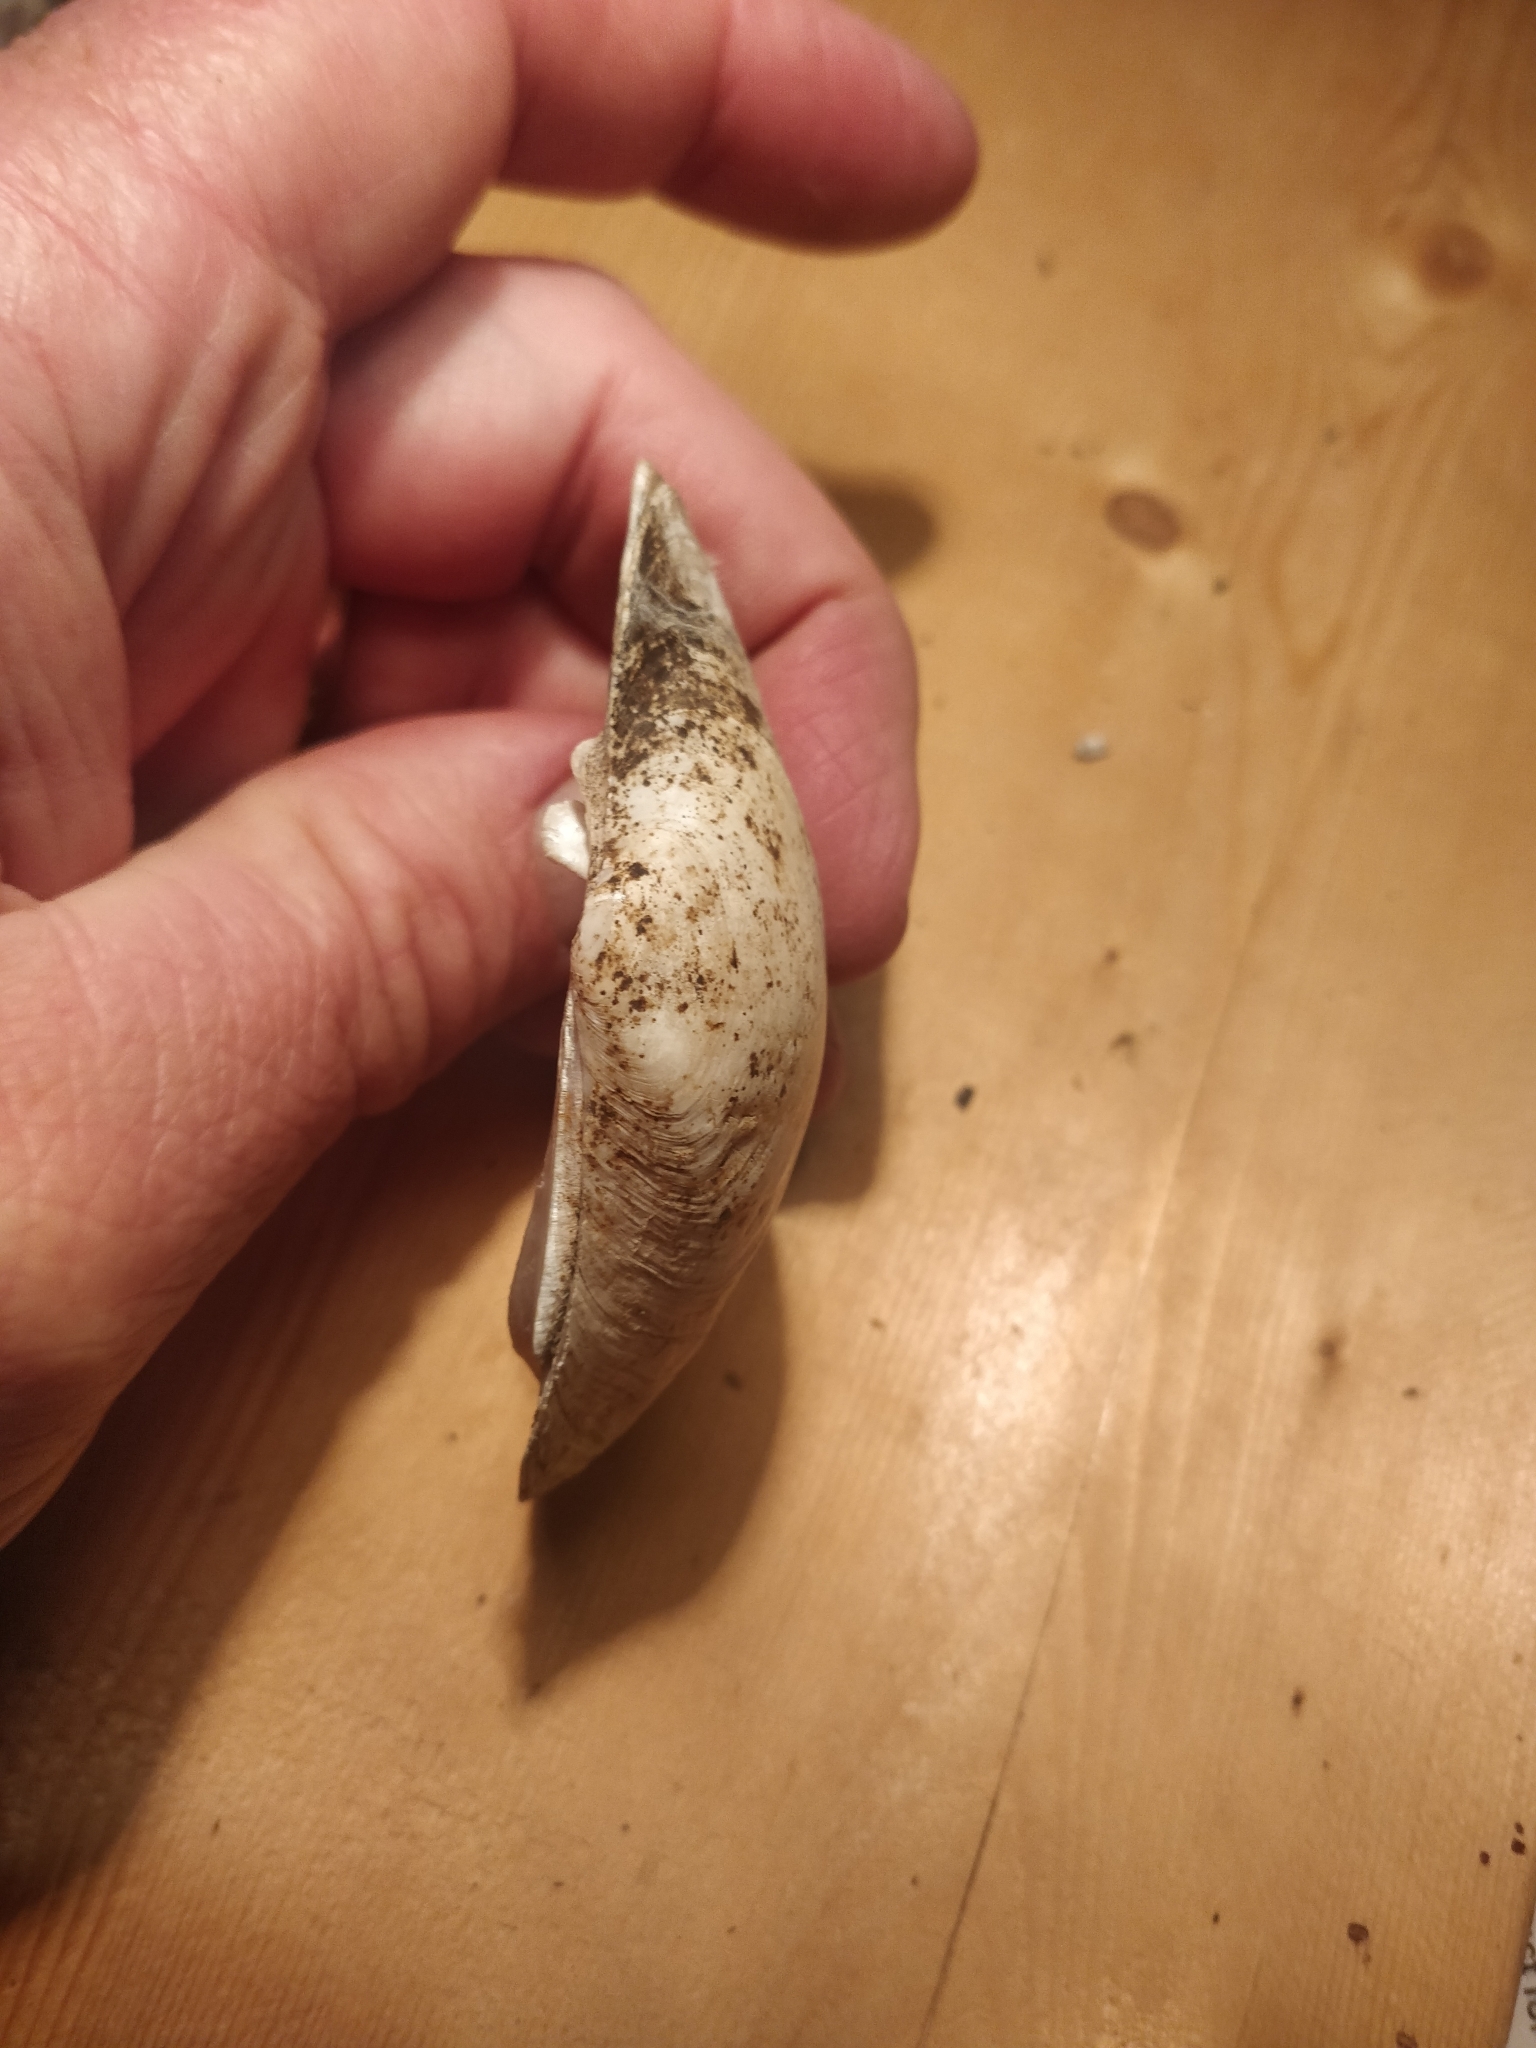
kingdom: Animalia
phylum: Mollusca
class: Bivalvia
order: Unionida
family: Unionidae
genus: Lampsilis
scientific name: Lampsilis cardium
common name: Plain pocketbook
